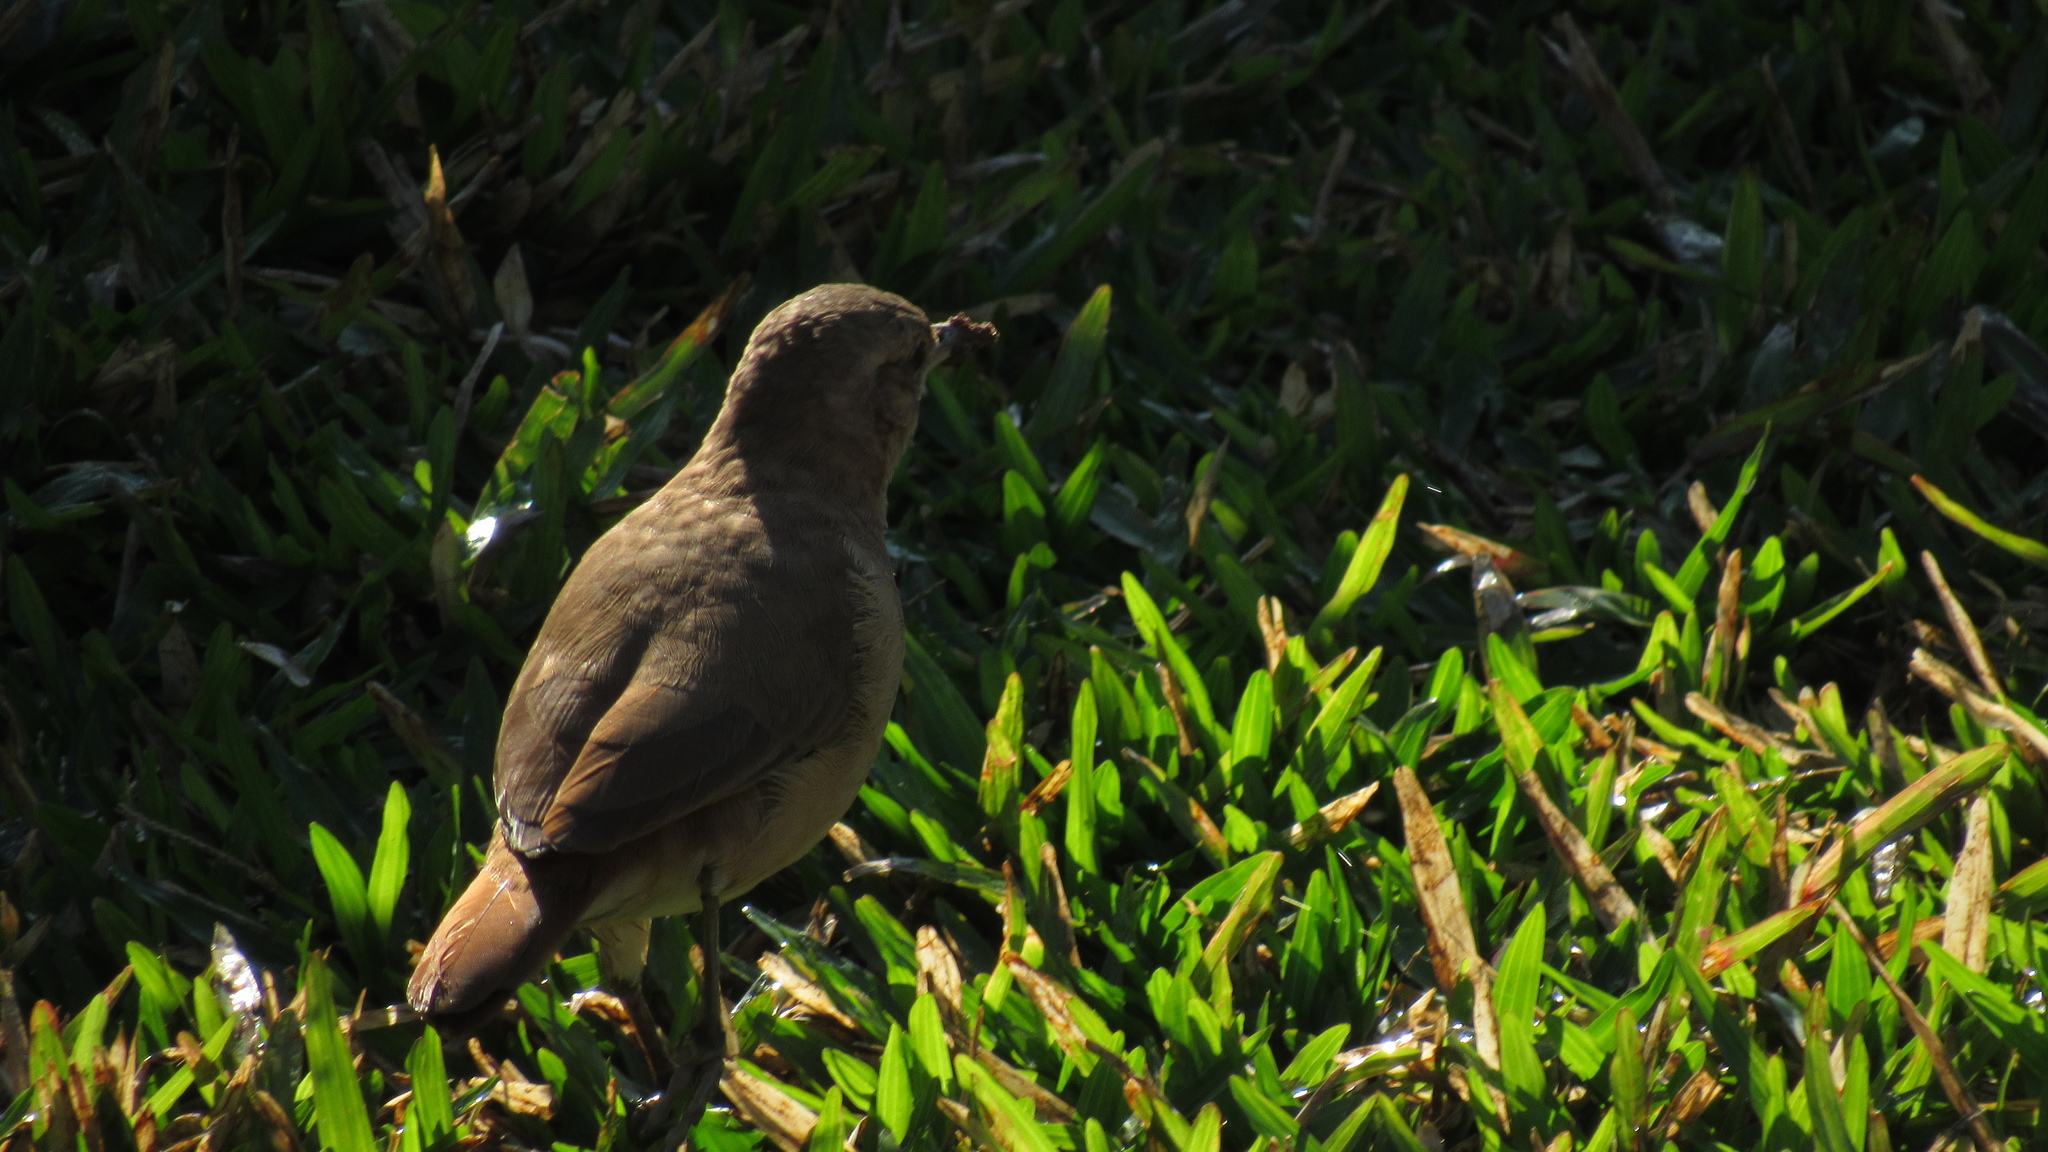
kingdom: Animalia
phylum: Chordata
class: Aves
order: Passeriformes
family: Furnariidae
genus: Furnarius
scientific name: Furnarius rufus
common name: Rufous hornero
